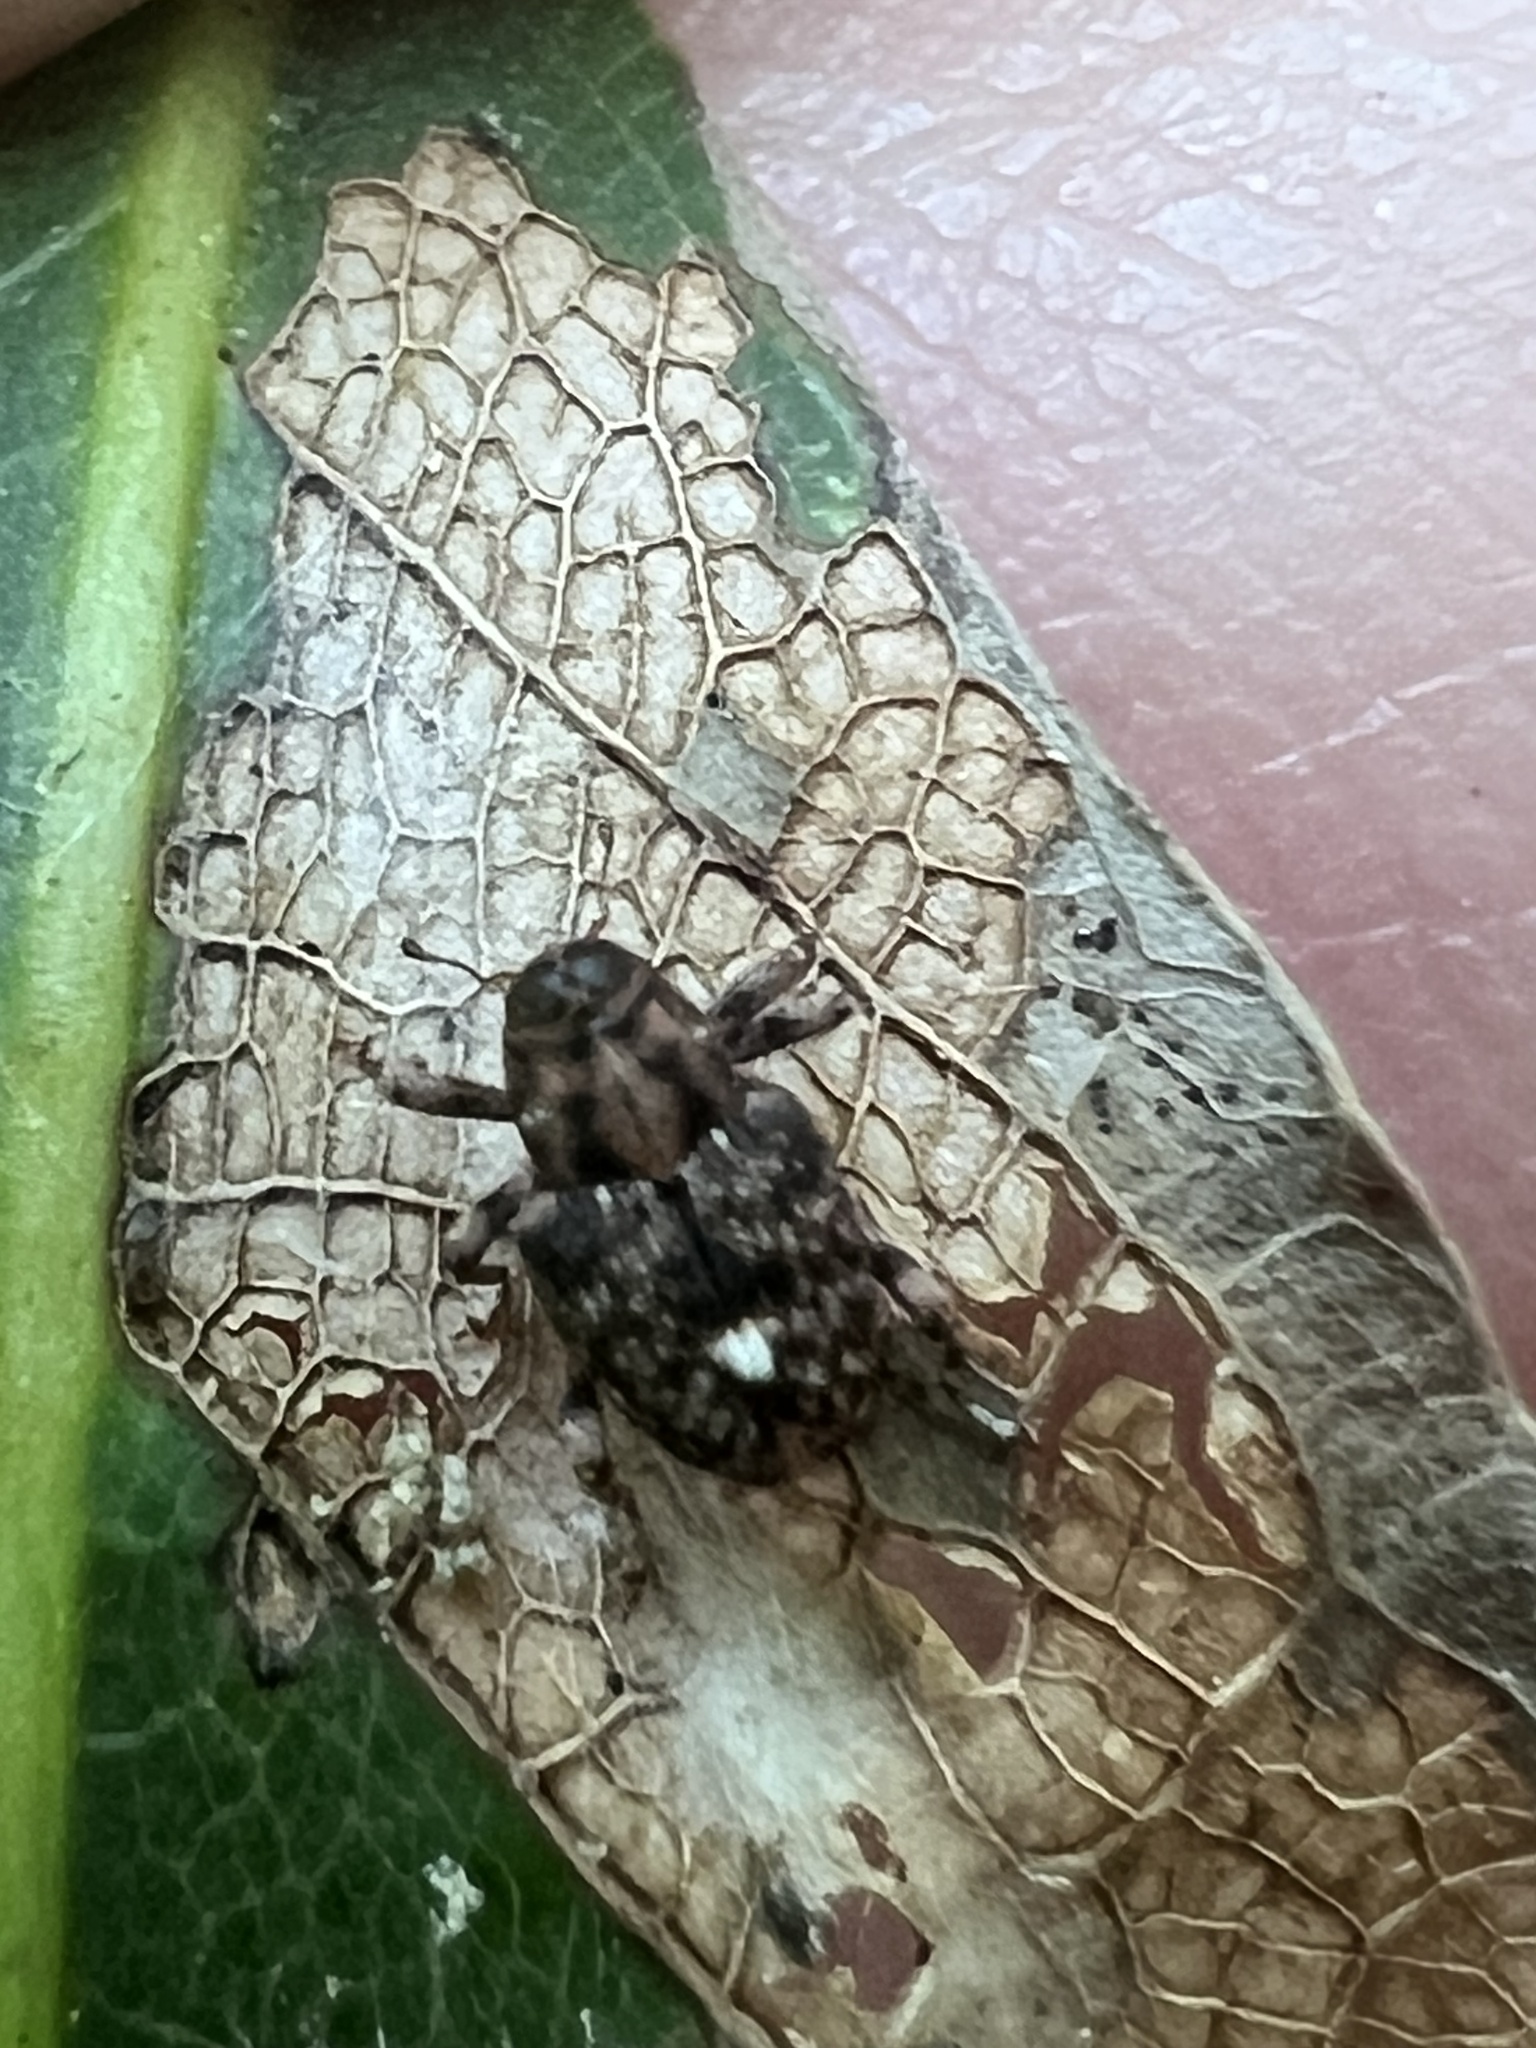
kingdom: Animalia
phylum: Arthropoda
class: Insecta
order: Coleoptera
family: Curculionidae
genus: Lechriops
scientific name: Lechriops oculatus
